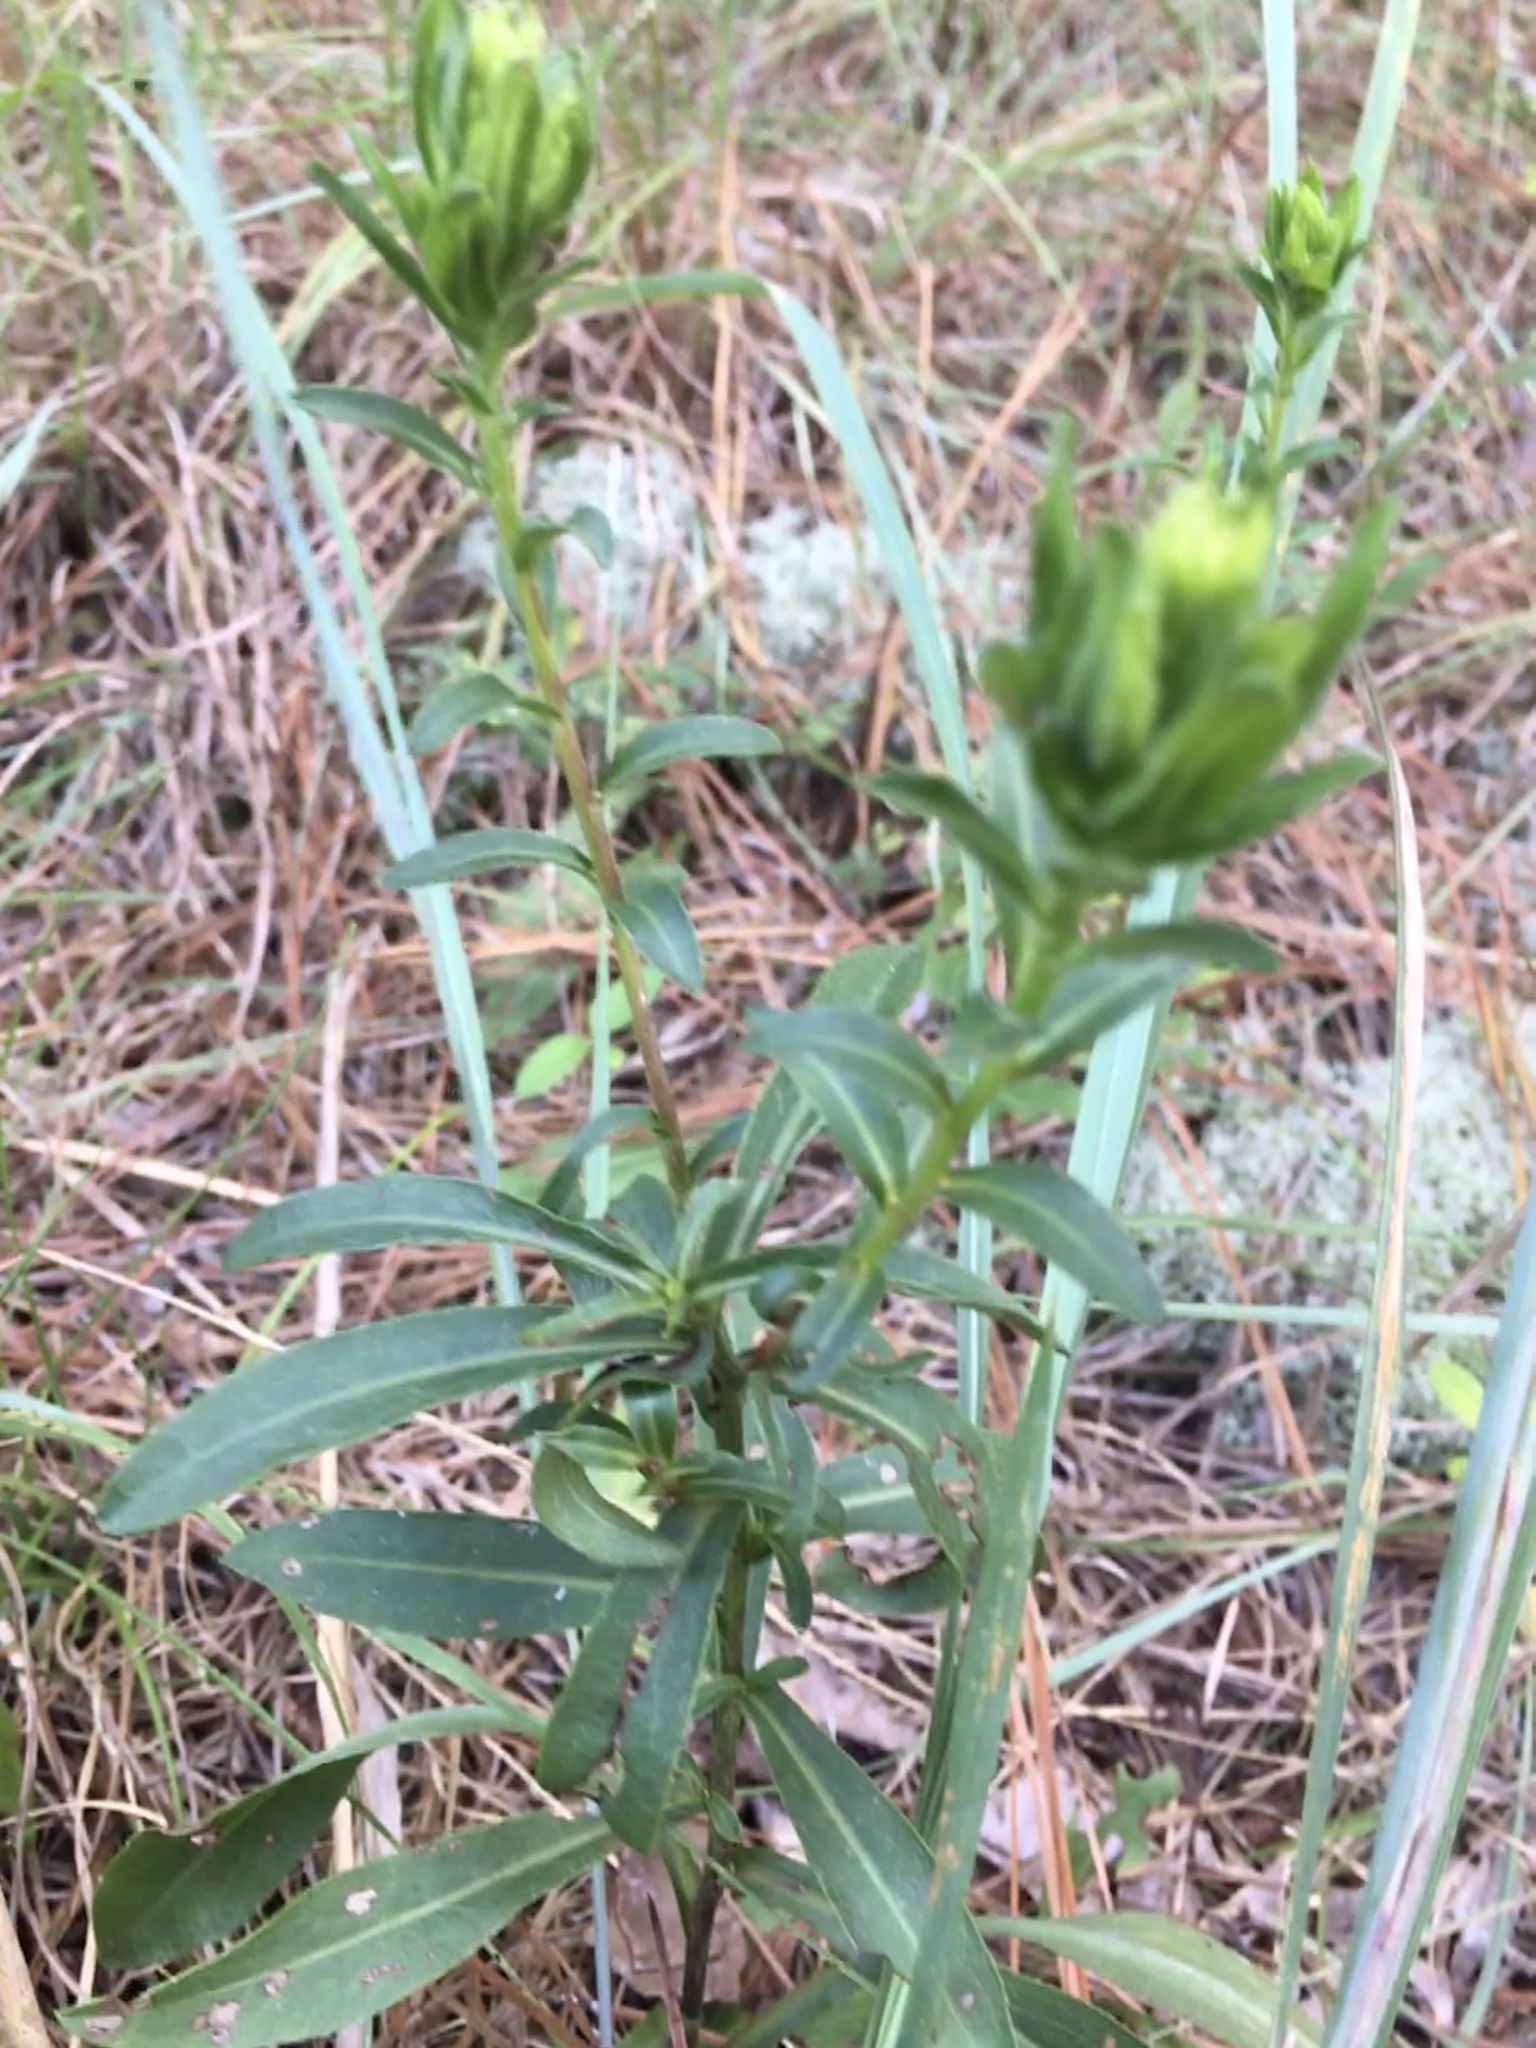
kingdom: Plantae
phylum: Tracheophyta
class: Magnoliopsida
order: Asterales
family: Asteraceae
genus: Chrysopsis
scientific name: Chrysopsis mariana
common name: Maryland golden-aster
